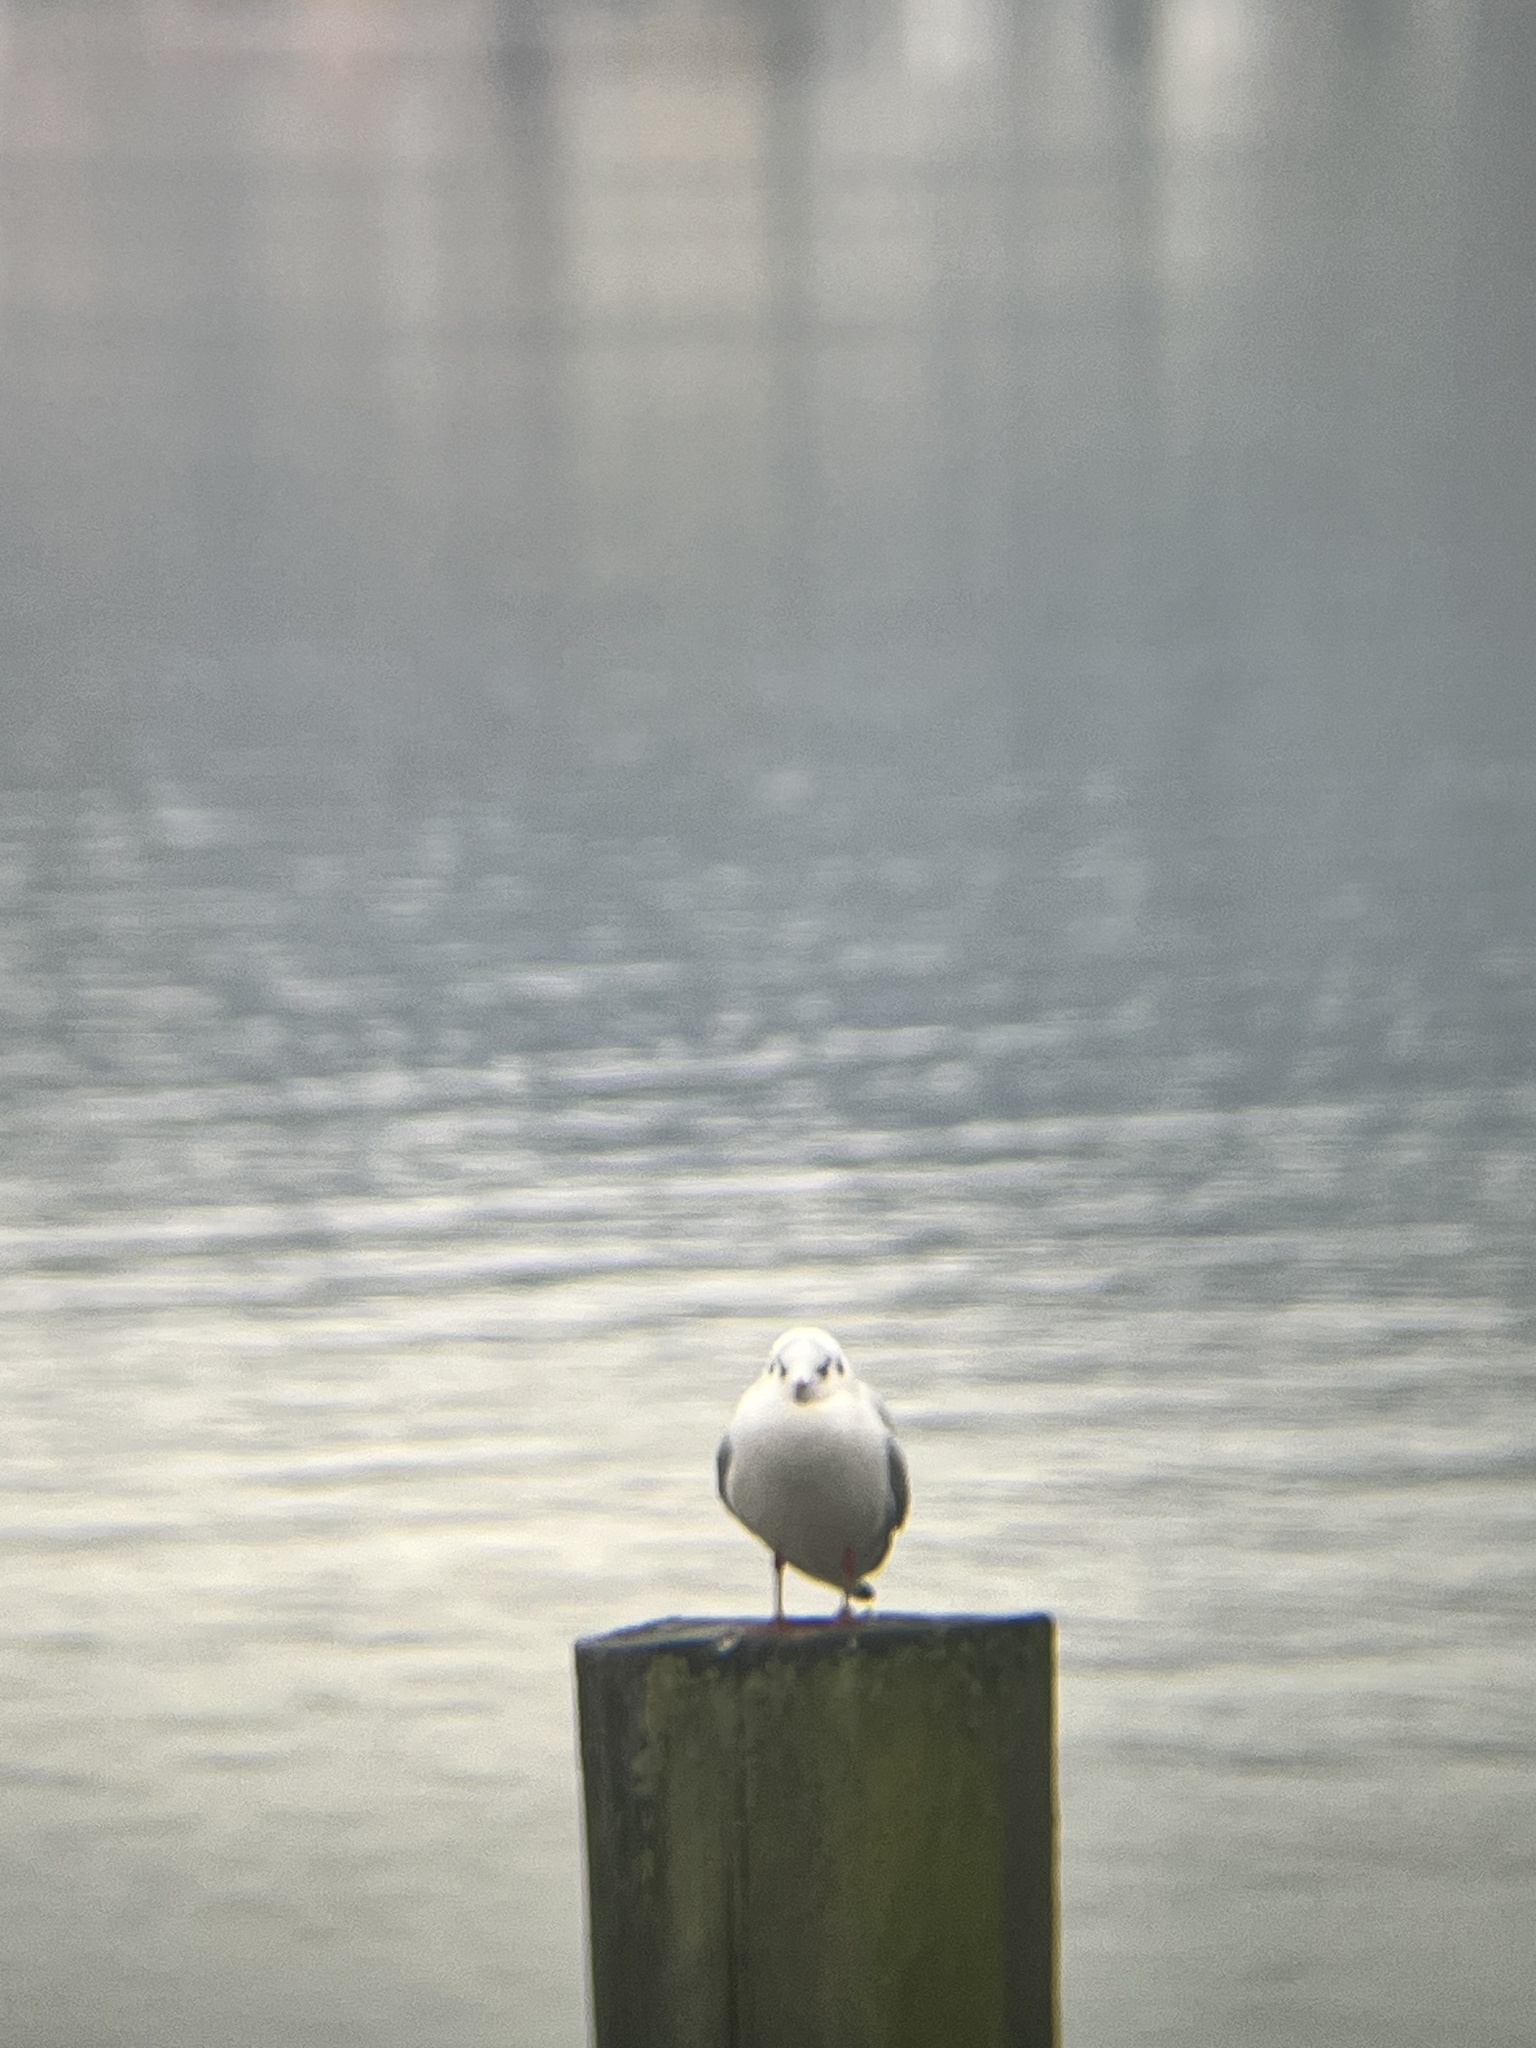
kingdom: Animalia
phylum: Chordata
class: Aves
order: Charadriiformes
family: Laridae
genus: Chroicocephalus
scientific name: Chroicocephalus ridibundus
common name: Black-headed gull
